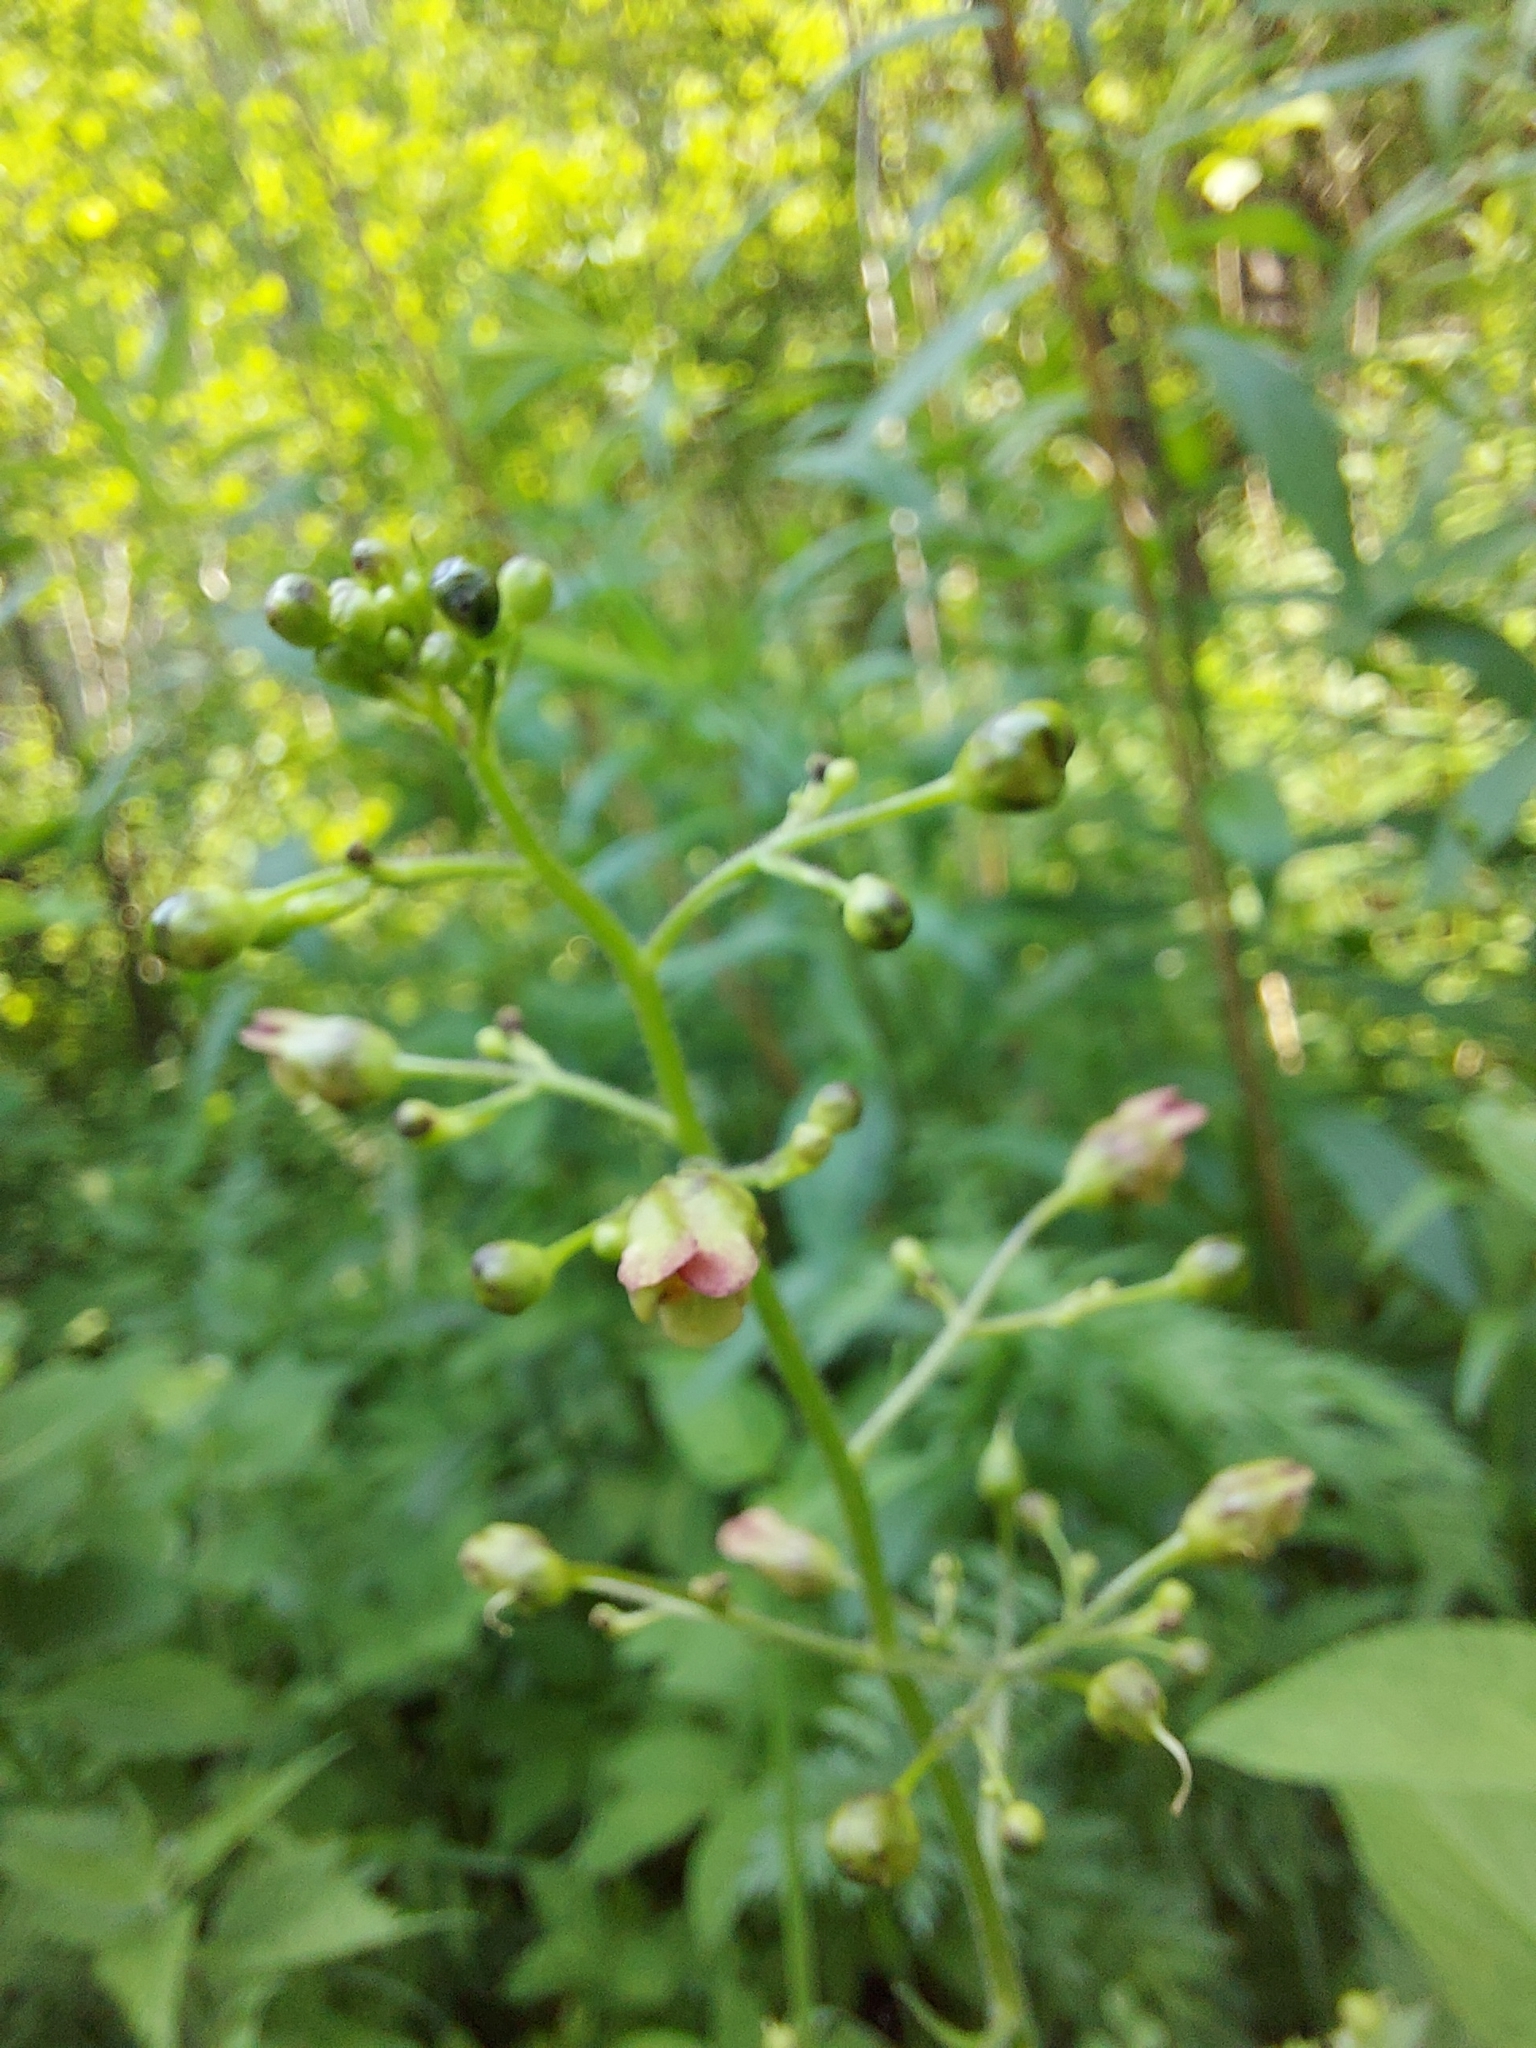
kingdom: Plantae
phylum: Tracheophyta
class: Magnoliopsida
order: Lamiales
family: Scrophulariaceae
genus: Scrophularia
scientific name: Scrophularia nodosa
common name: Common figwort
